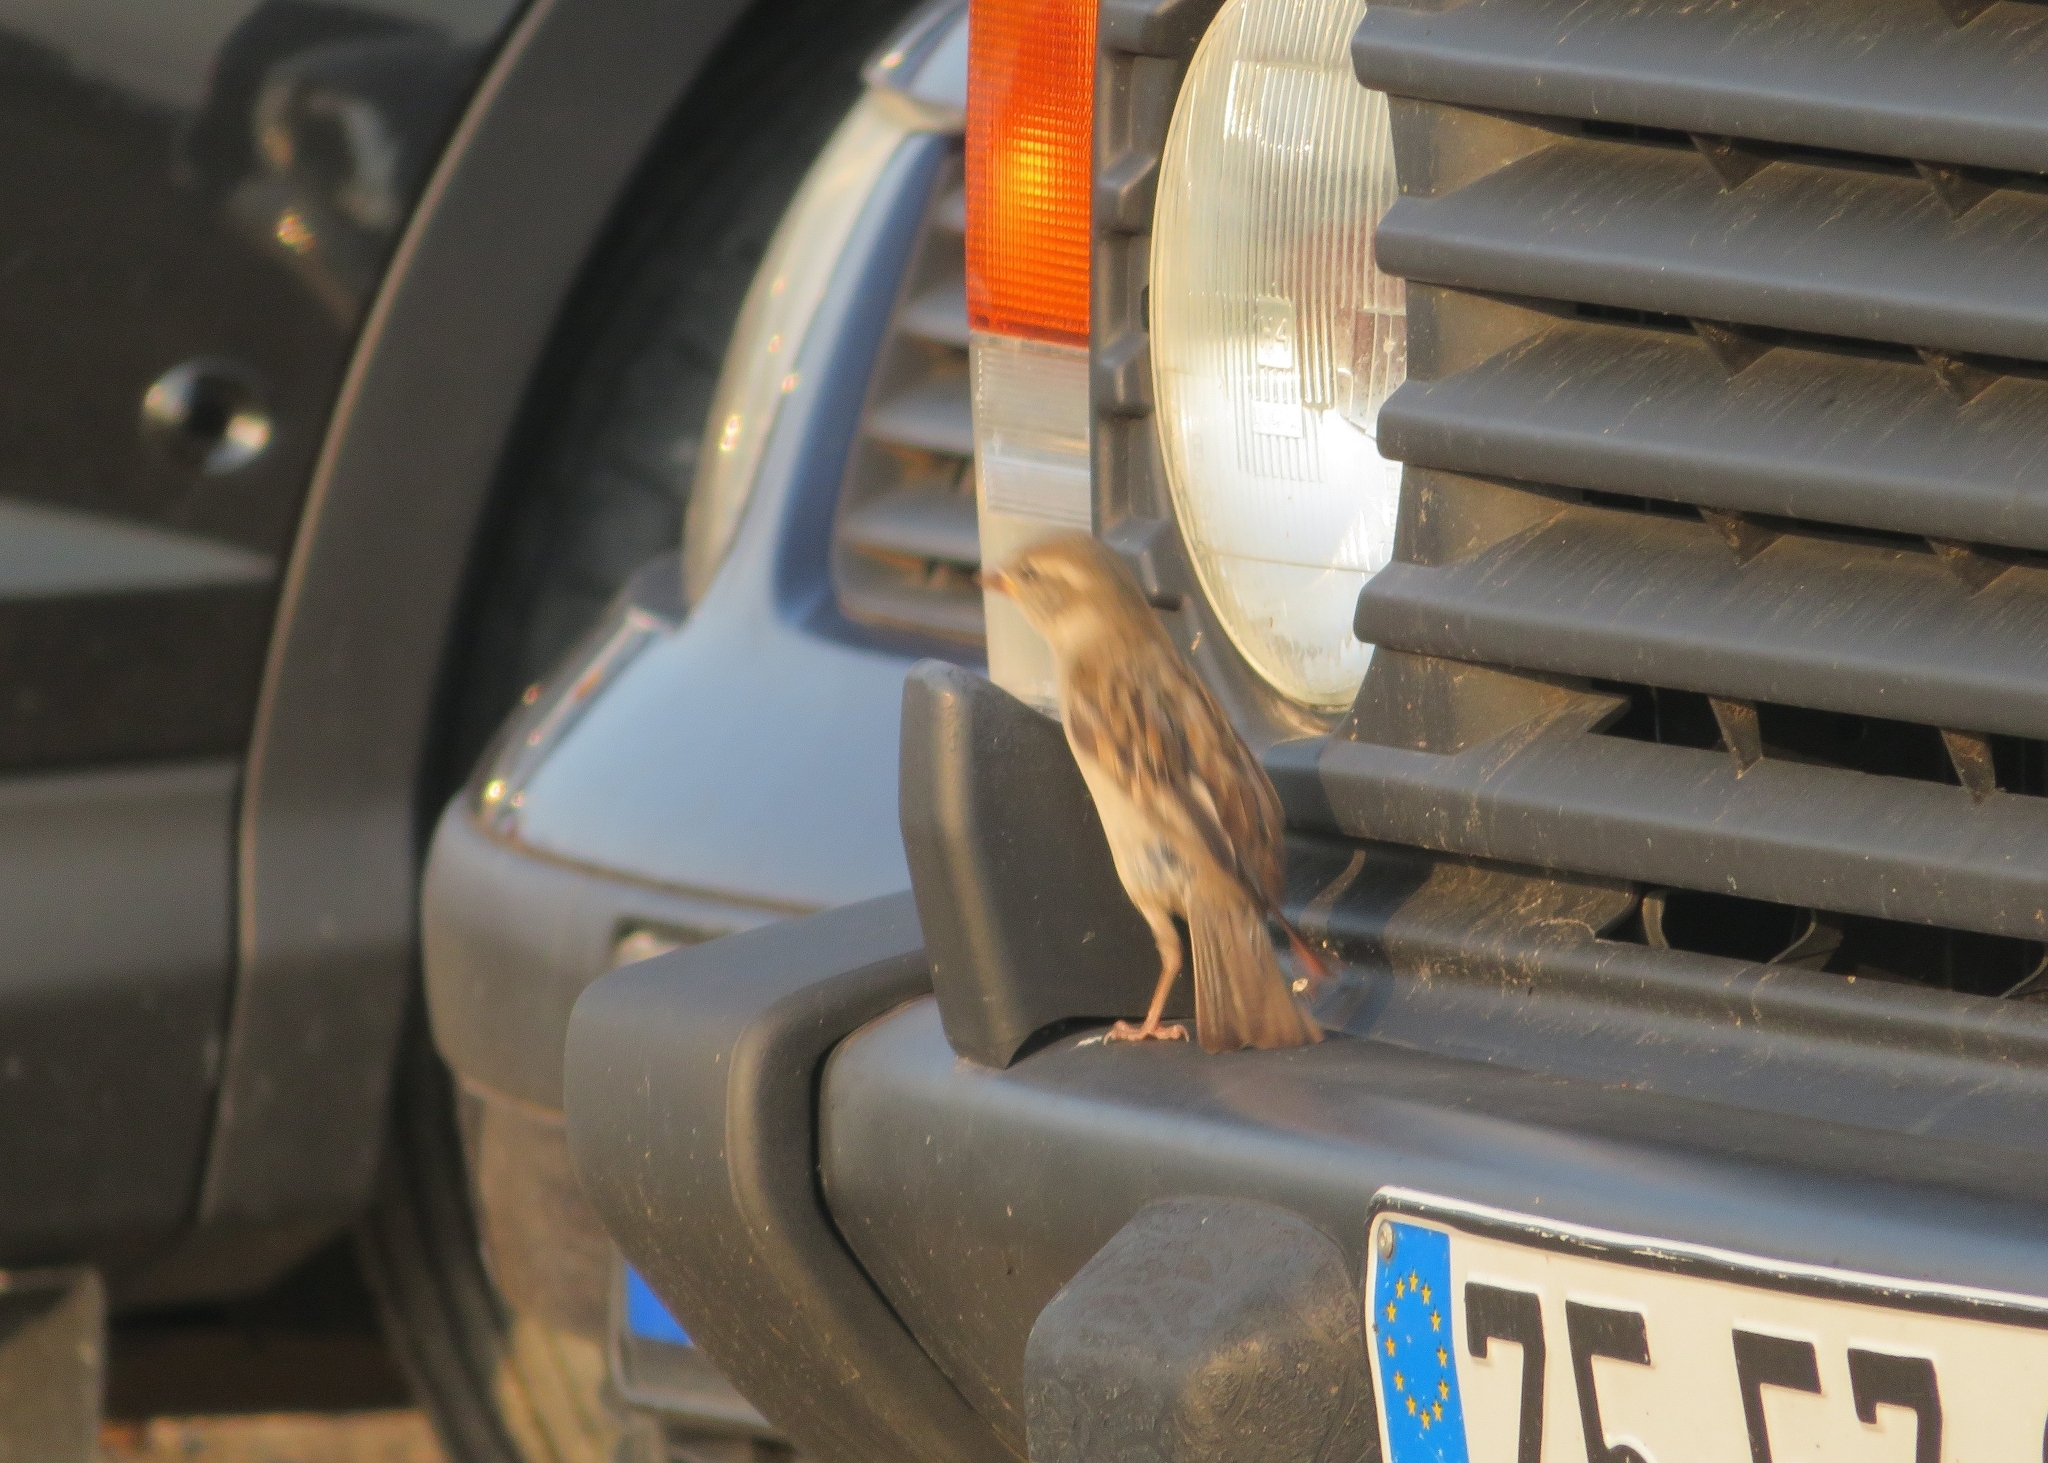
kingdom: Animalia
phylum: Chordata
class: Aves
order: Passeriformes
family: Passeridae
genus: Passer
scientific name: Passer domesticus
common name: House sparrow
